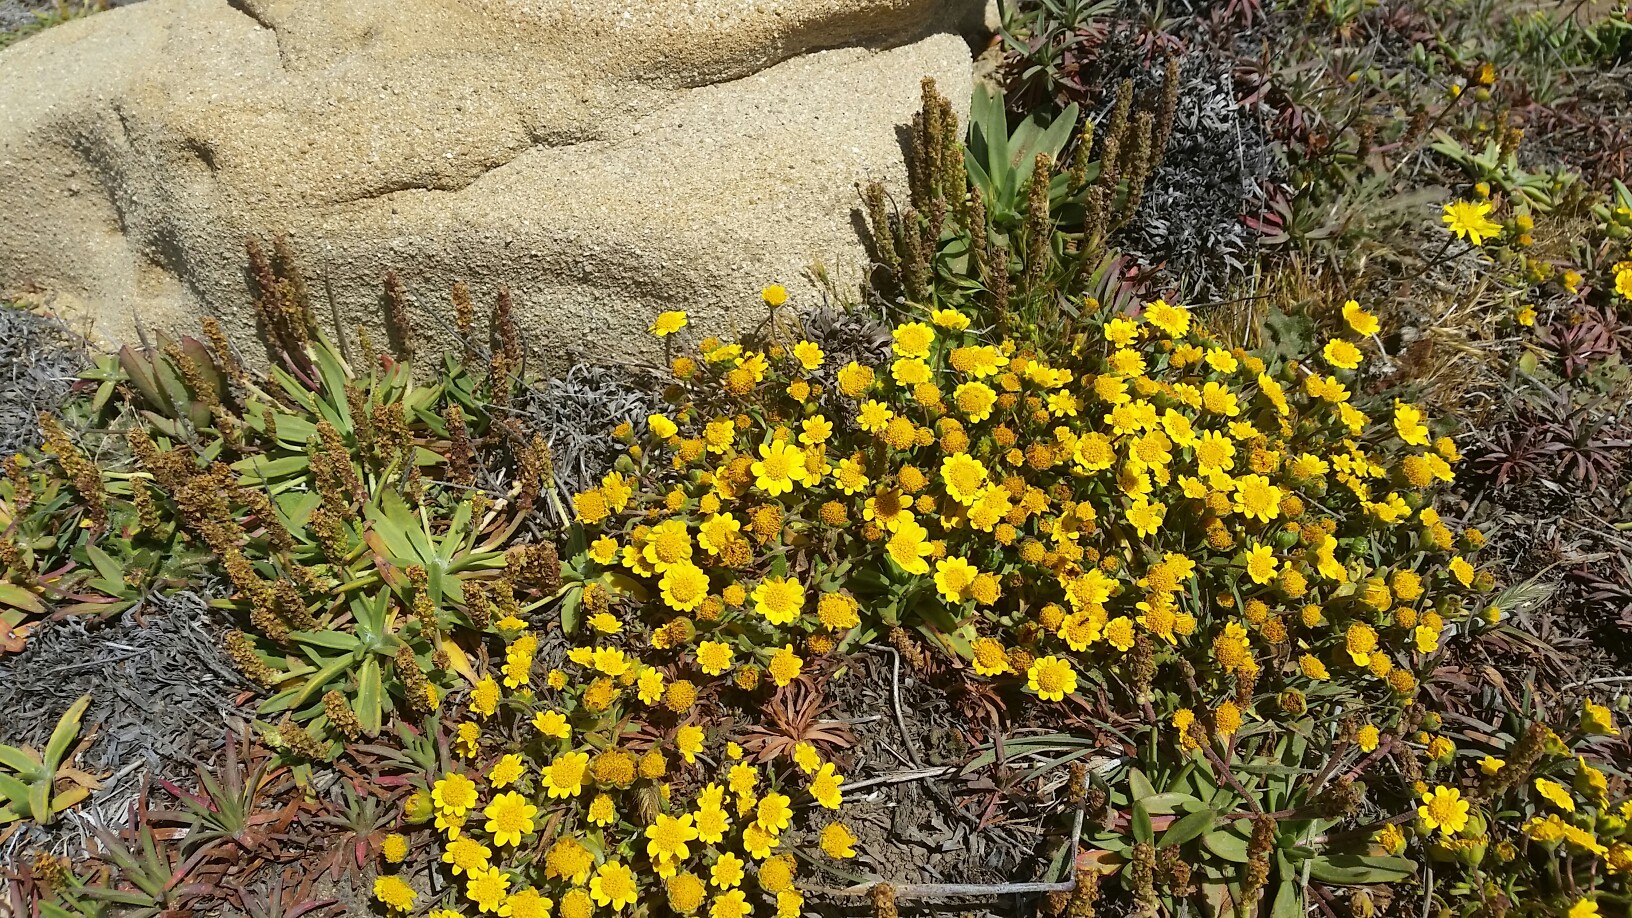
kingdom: Plantae
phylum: Tracheophyta
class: Magnoliopsida
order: Lamiales
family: Plantaginaceae
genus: Plantago
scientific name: Plantago maritima
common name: Sea plantain
